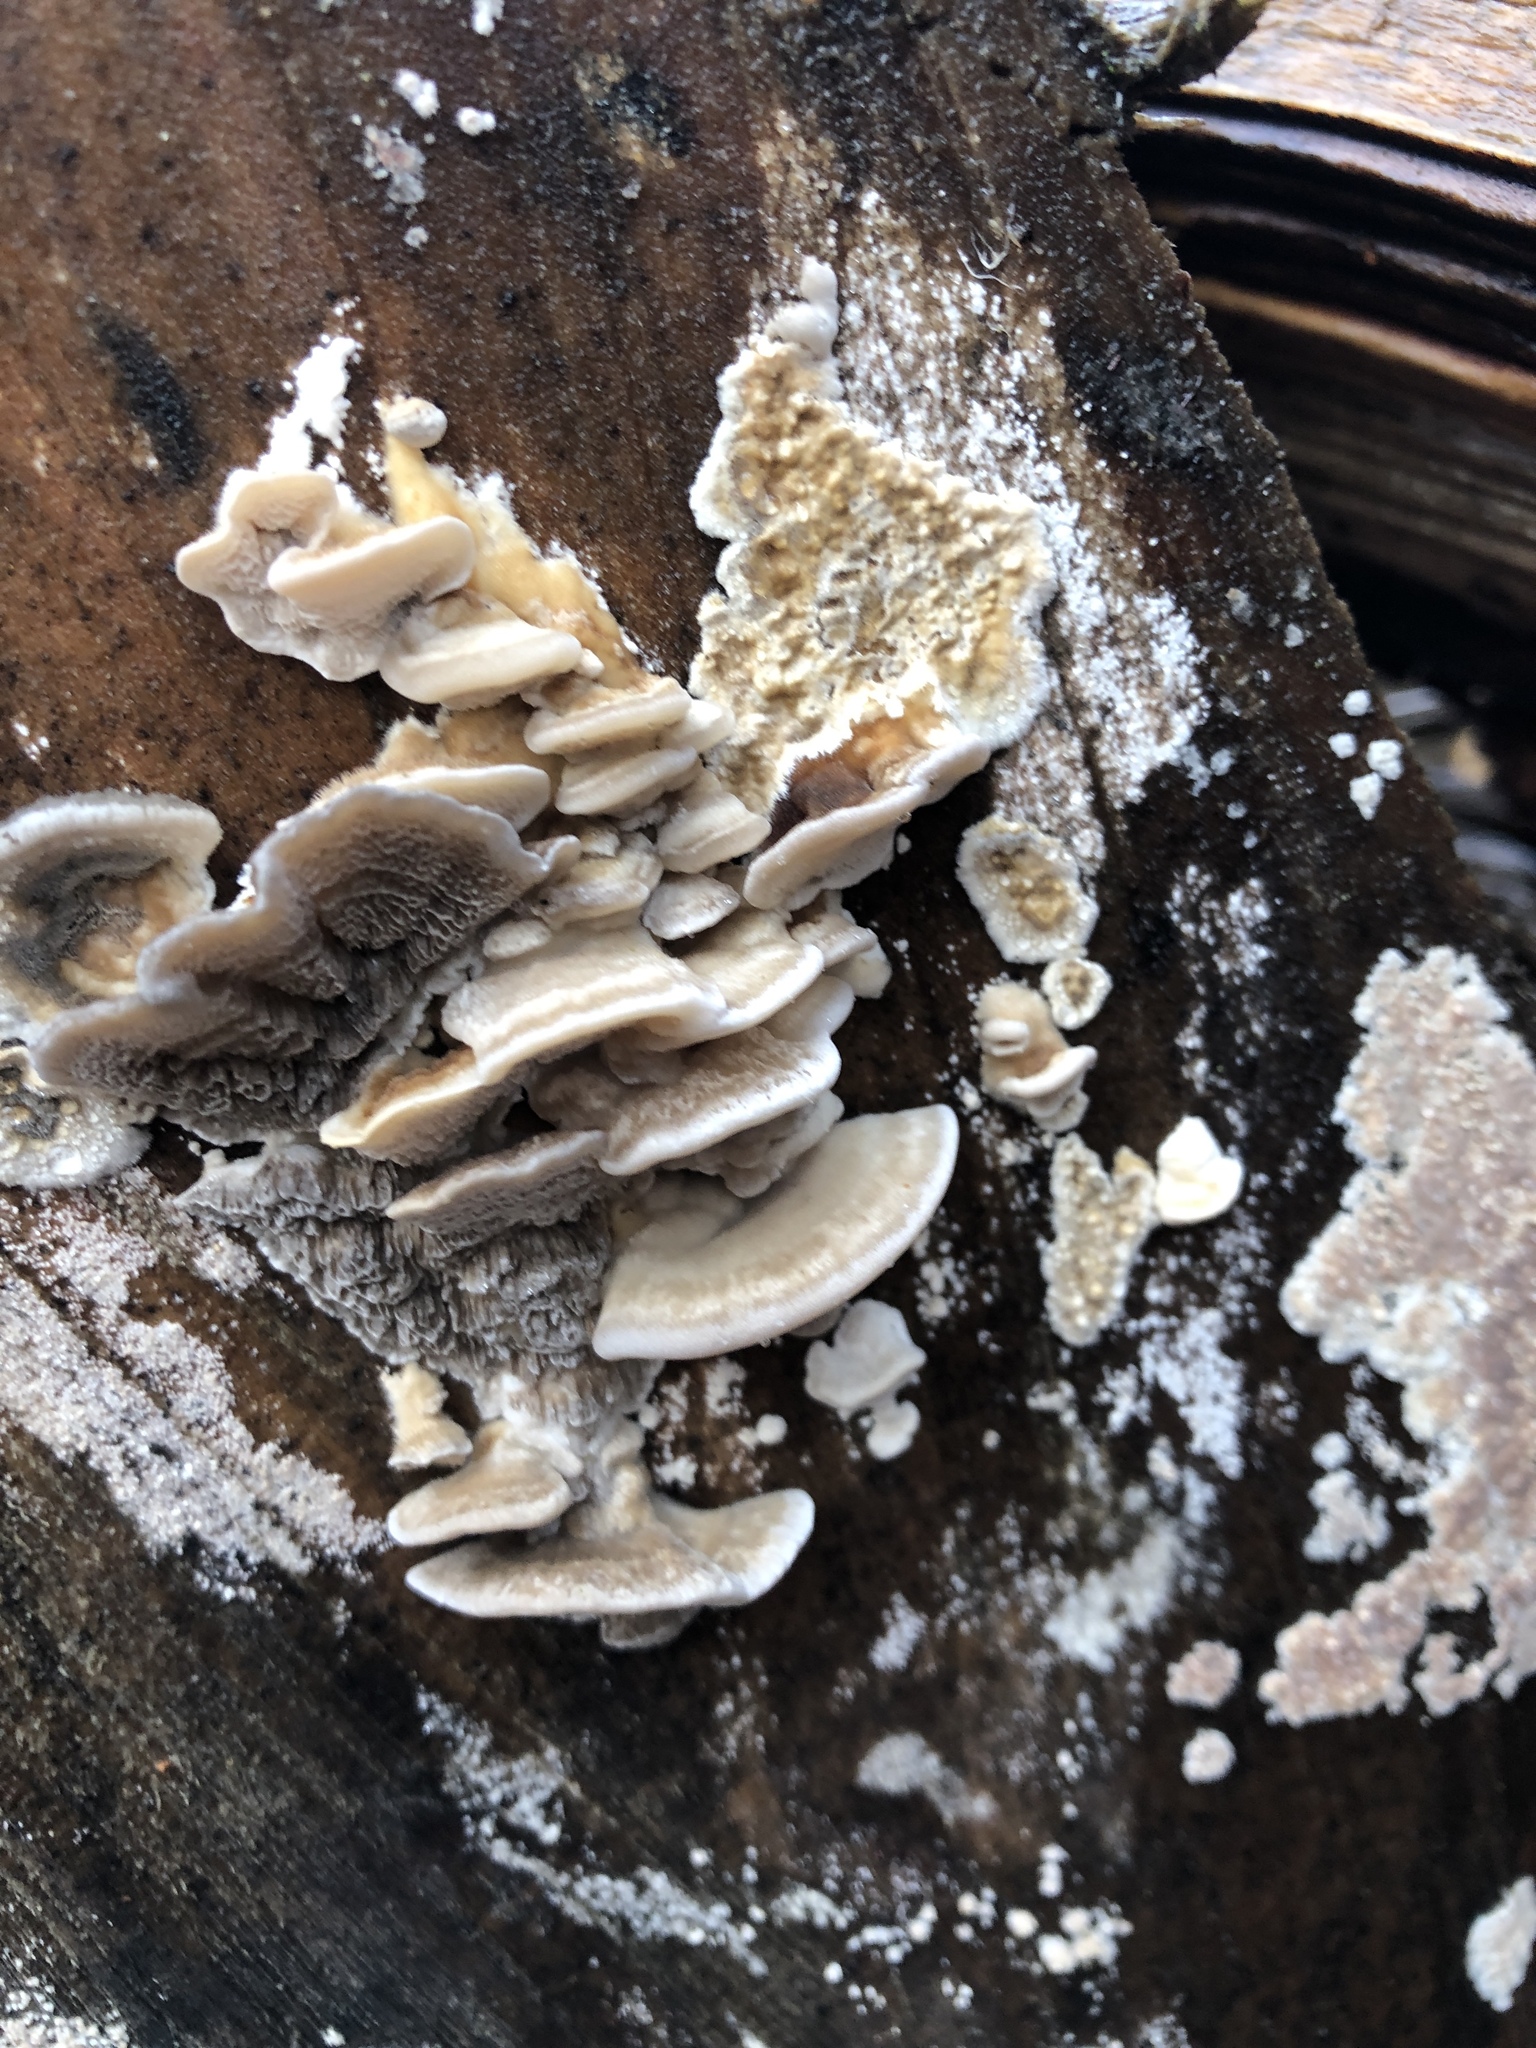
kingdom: Fungi
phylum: Basidiomycota
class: Agaricomycetes
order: Polyporales
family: Polyporaceae
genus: Trametes
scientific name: Trametes versicolor
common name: Turkeytail
